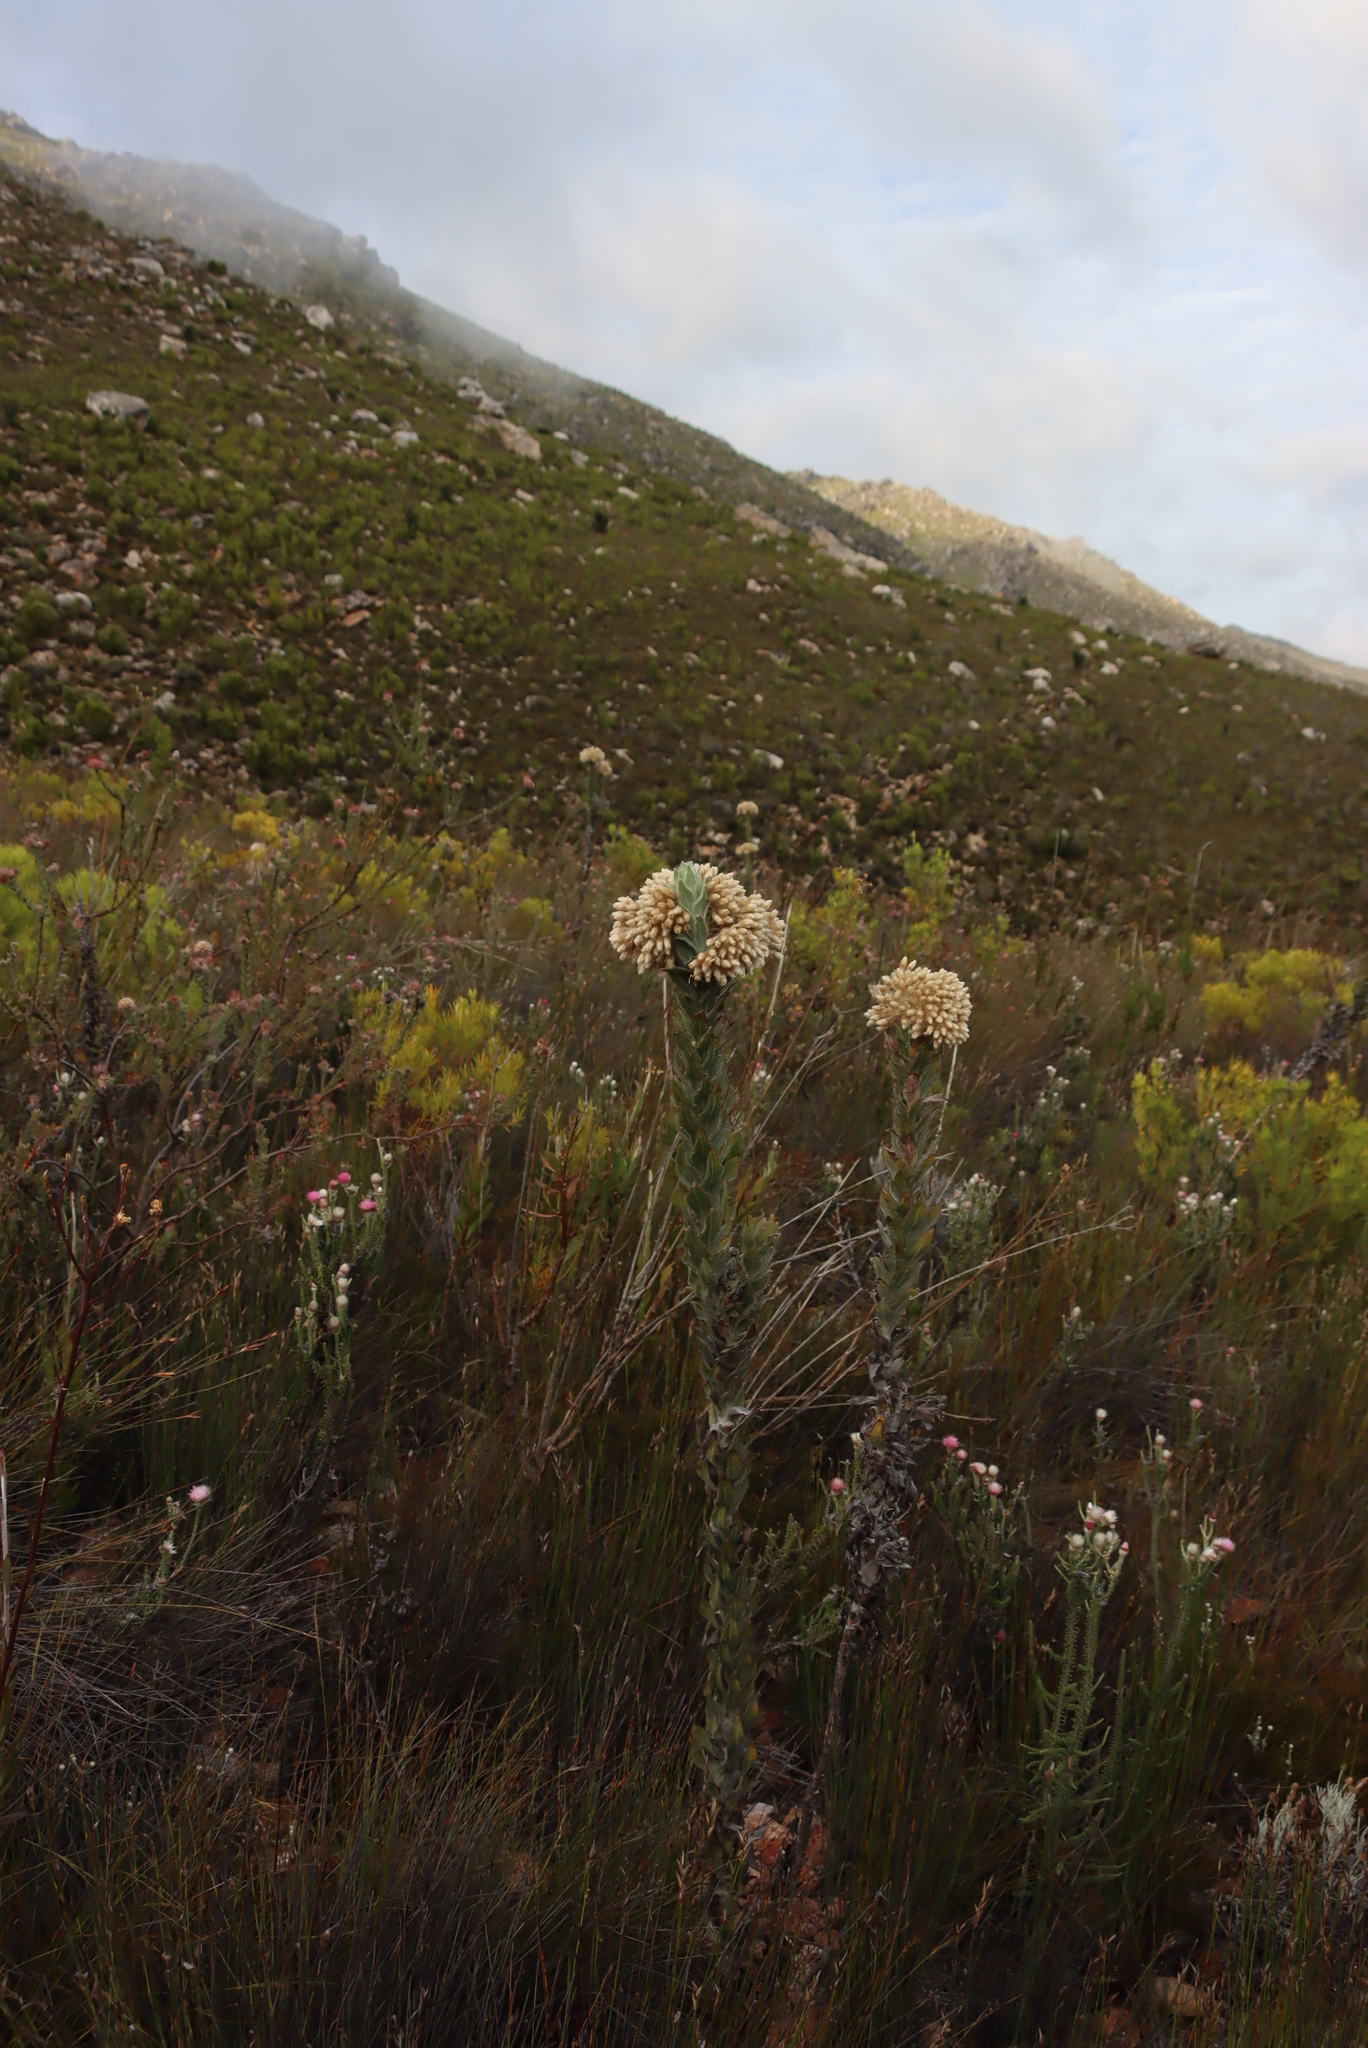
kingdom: Plantae
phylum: Tracheophyta
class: Magnoliopsida
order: Asterales
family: Asteraceae
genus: Syncarpha
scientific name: Syncarpha milleflora
